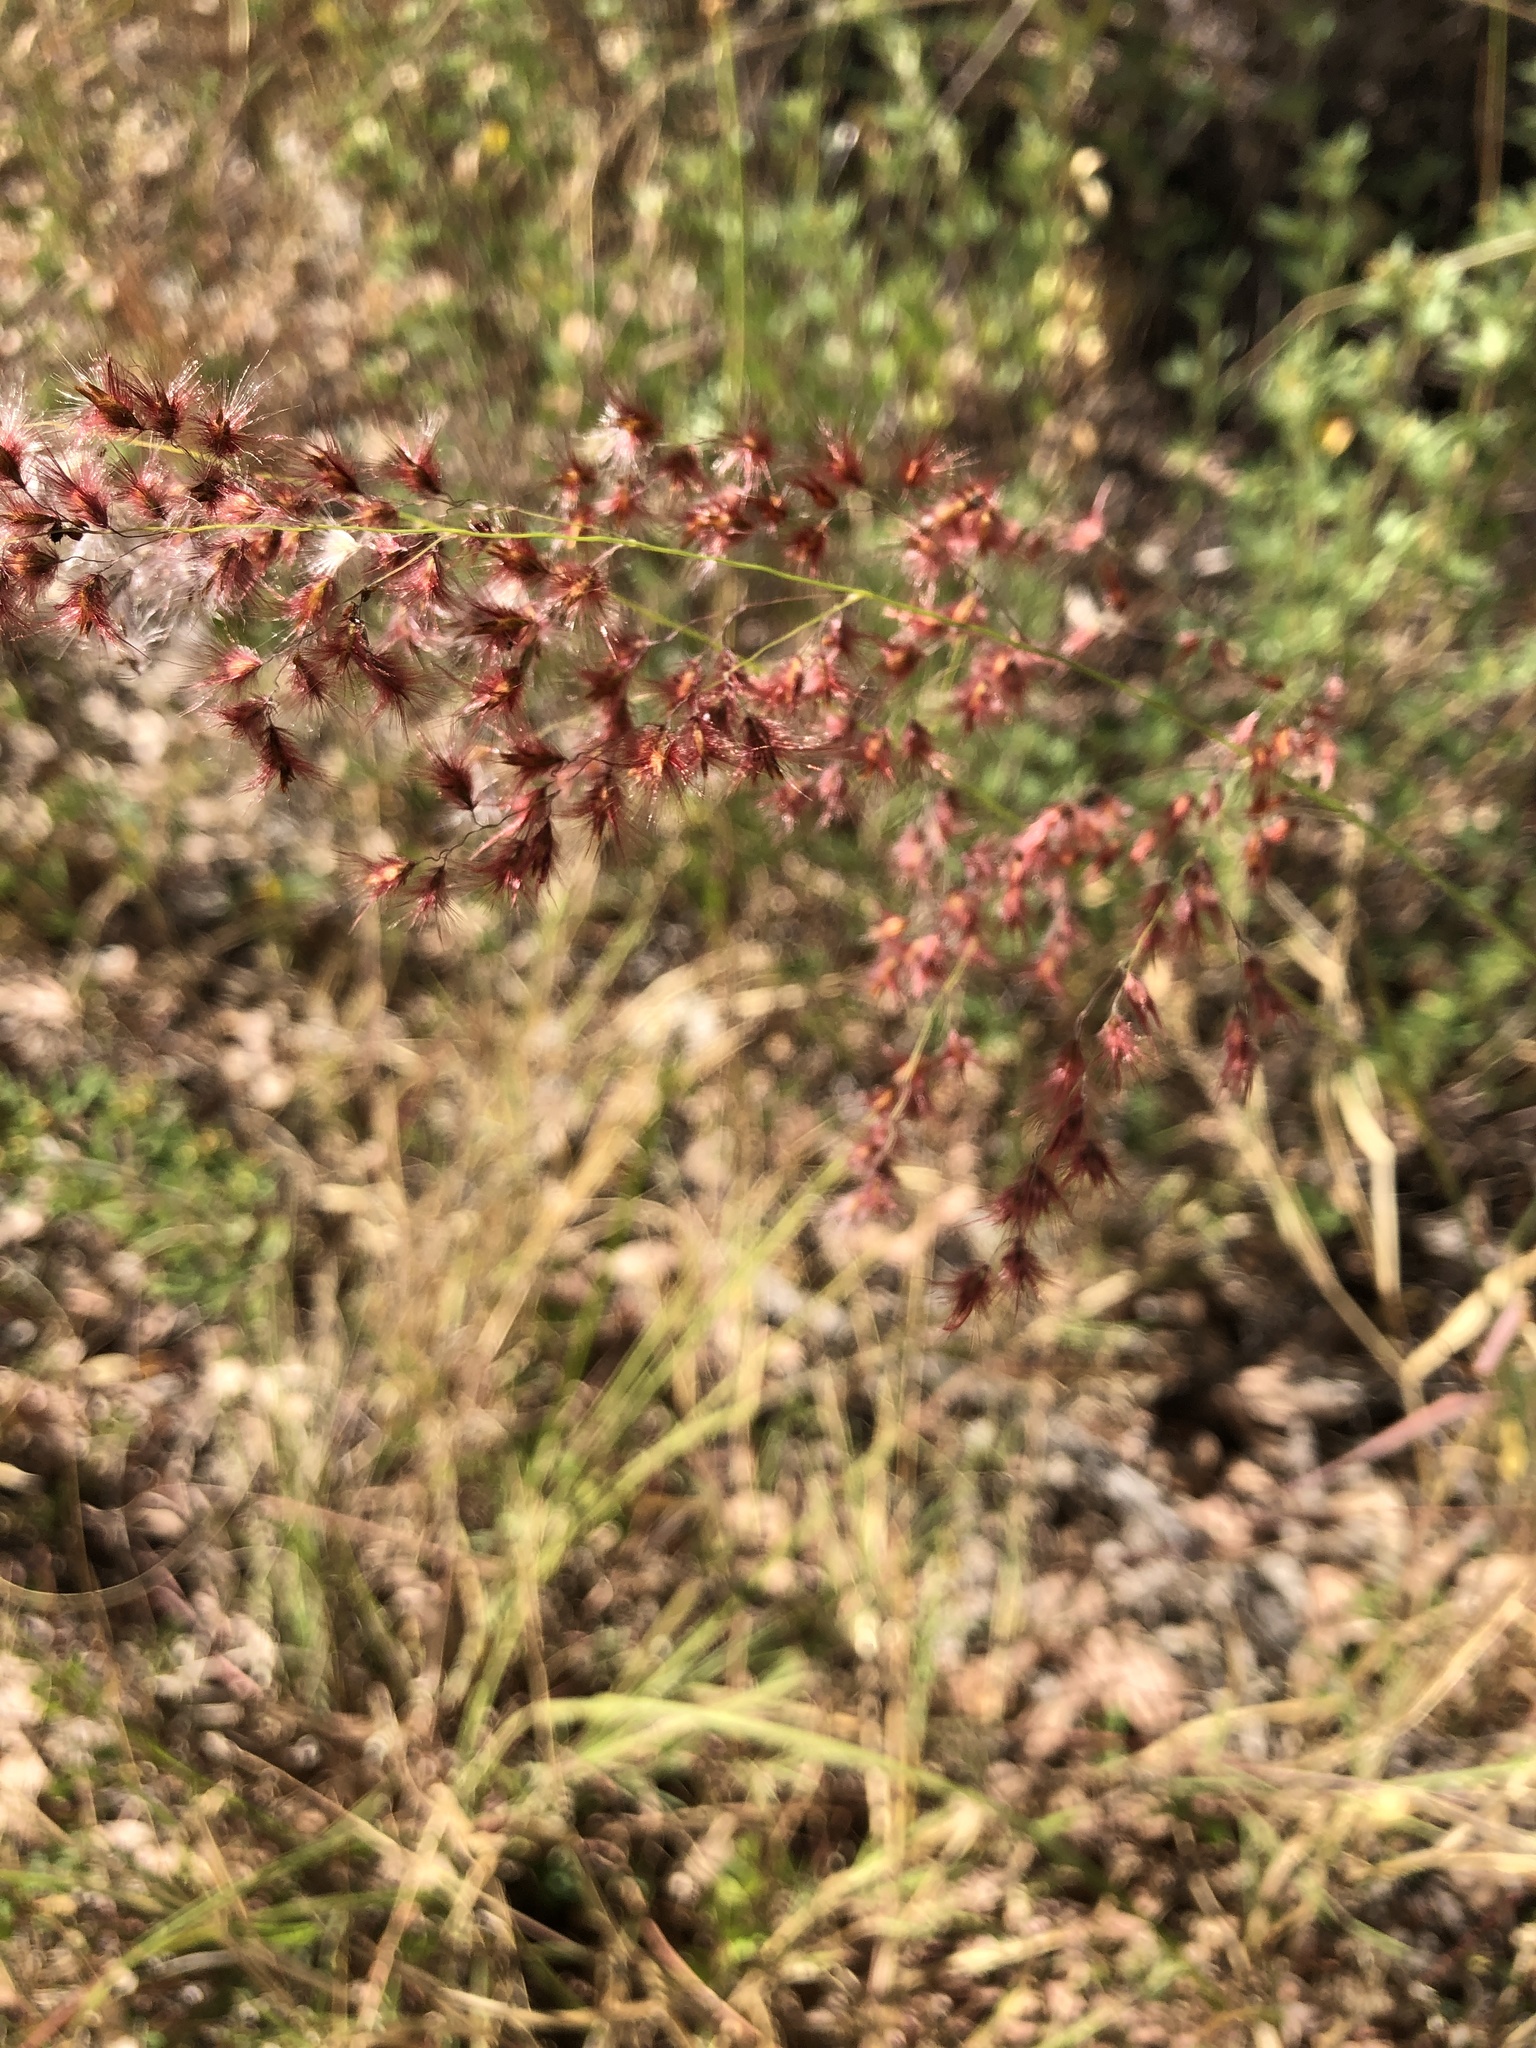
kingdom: Plantae
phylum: Tracheophyta
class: Liliopsida
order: Poales
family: Poaceae
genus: Melinis
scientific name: Melinis repens
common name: Rose natal grass
